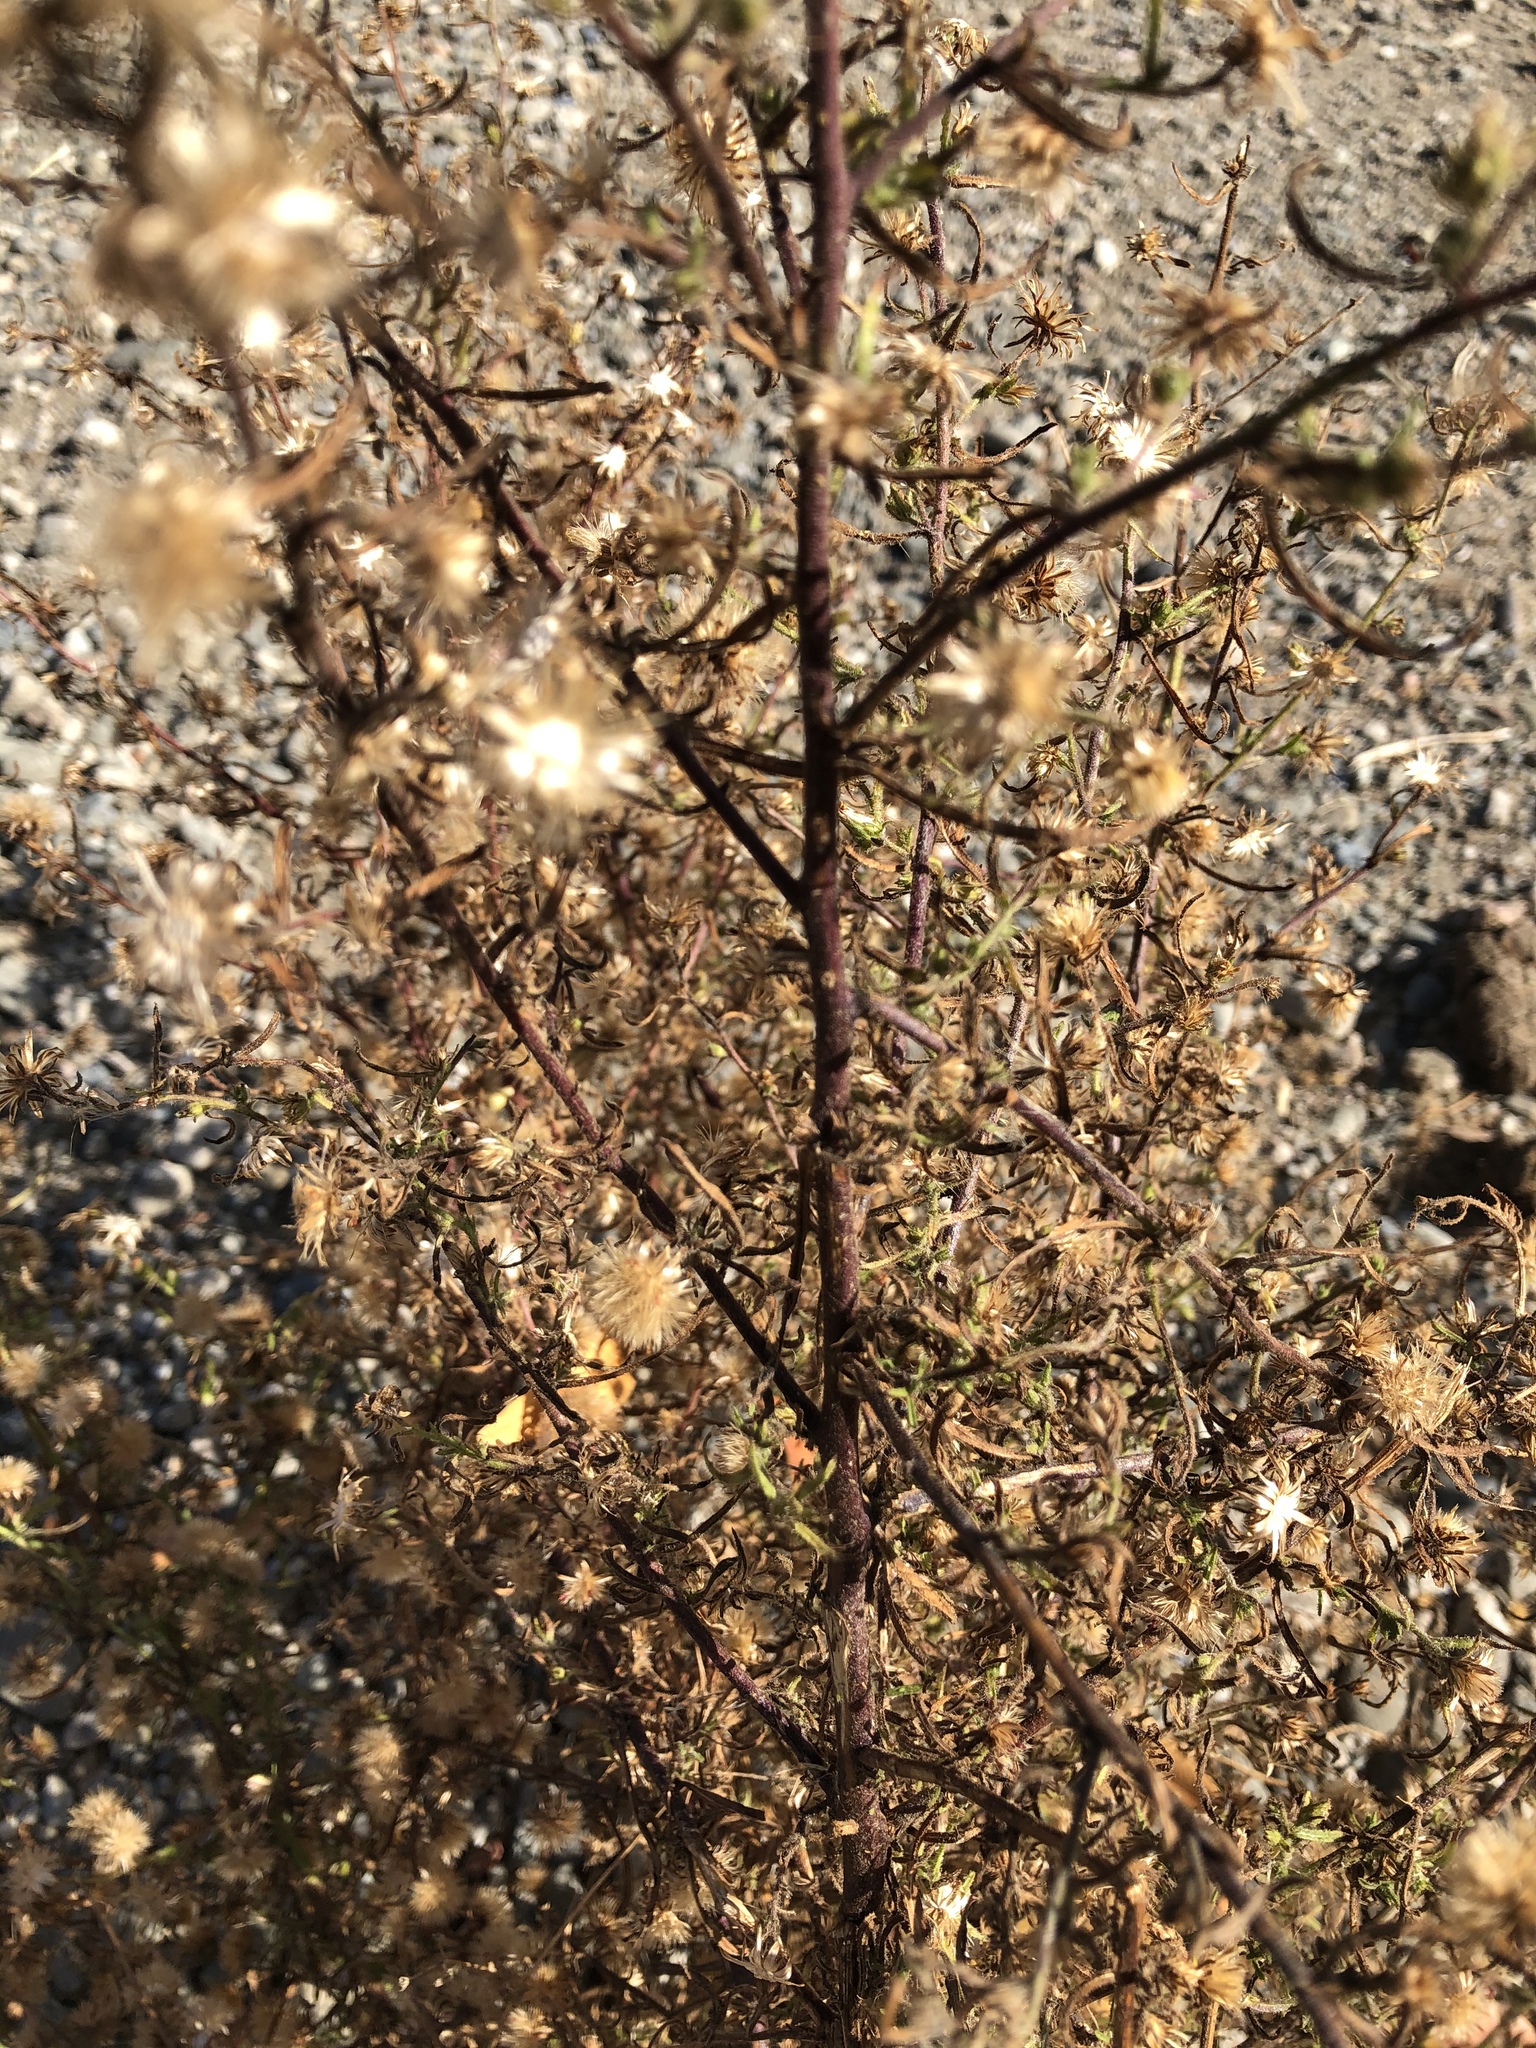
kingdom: Plantae
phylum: Tracheophyta
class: Magnoliopsida
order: Asterales
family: Asteraceae
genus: Dittrichia
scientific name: Dittrichia graveolens
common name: Stinking fleabane
